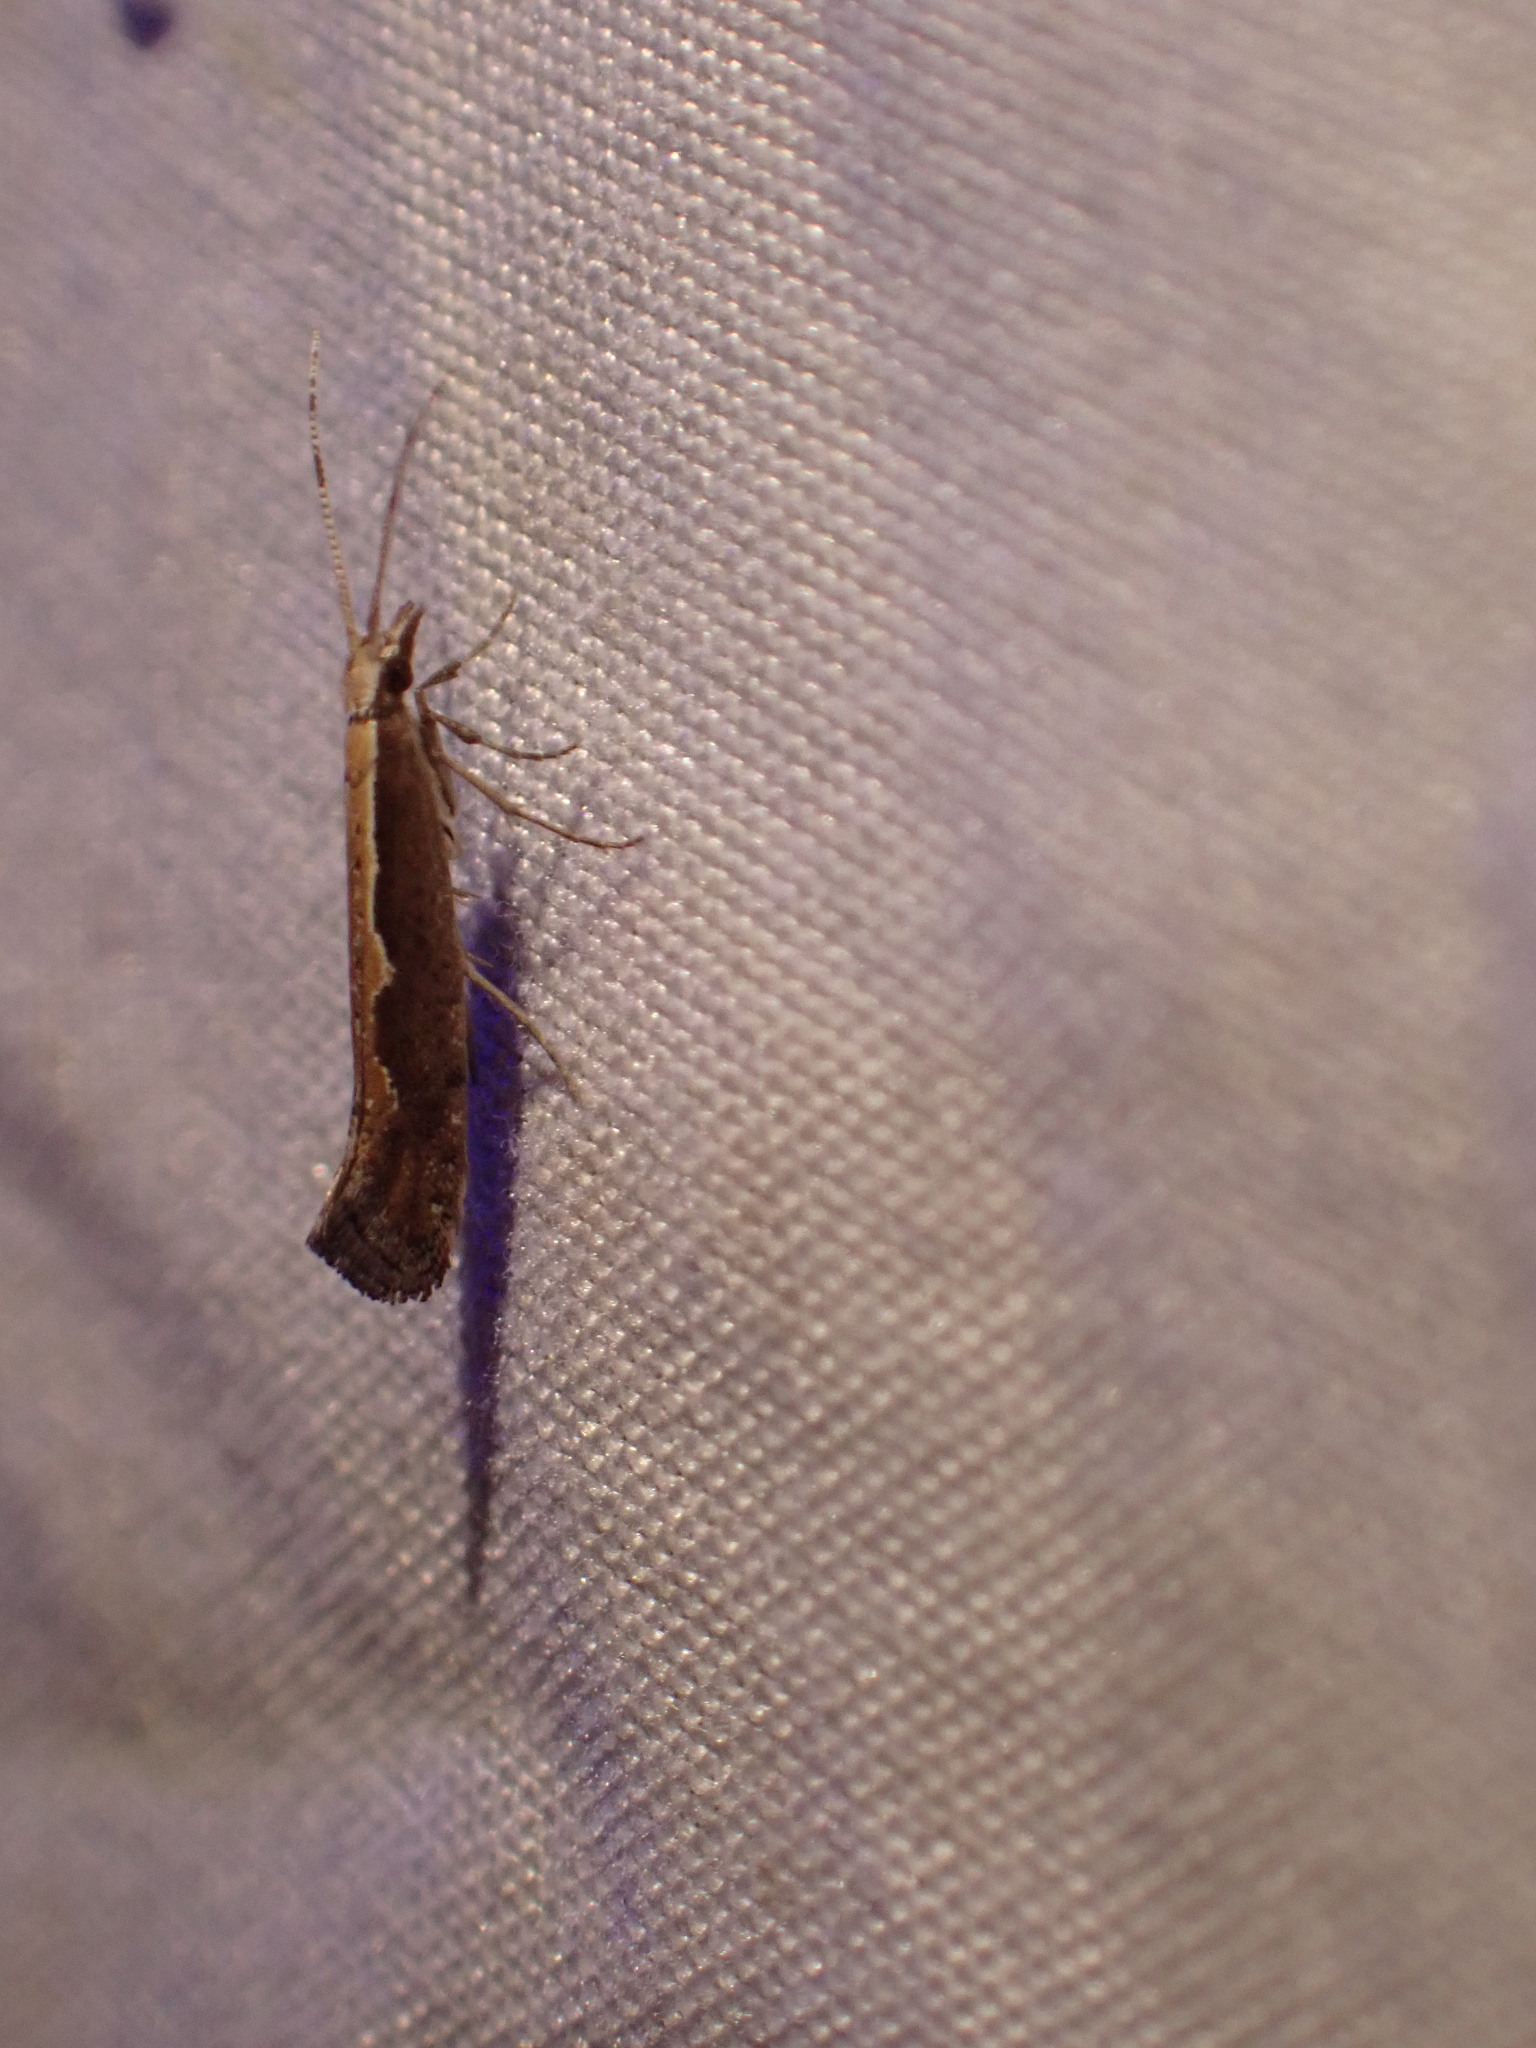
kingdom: Animalia
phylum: Arthropoda
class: Insecta
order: Lepidoptera
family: Plutellidae
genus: Plutella
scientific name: Plutella xylostella
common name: Diamond-back moth
